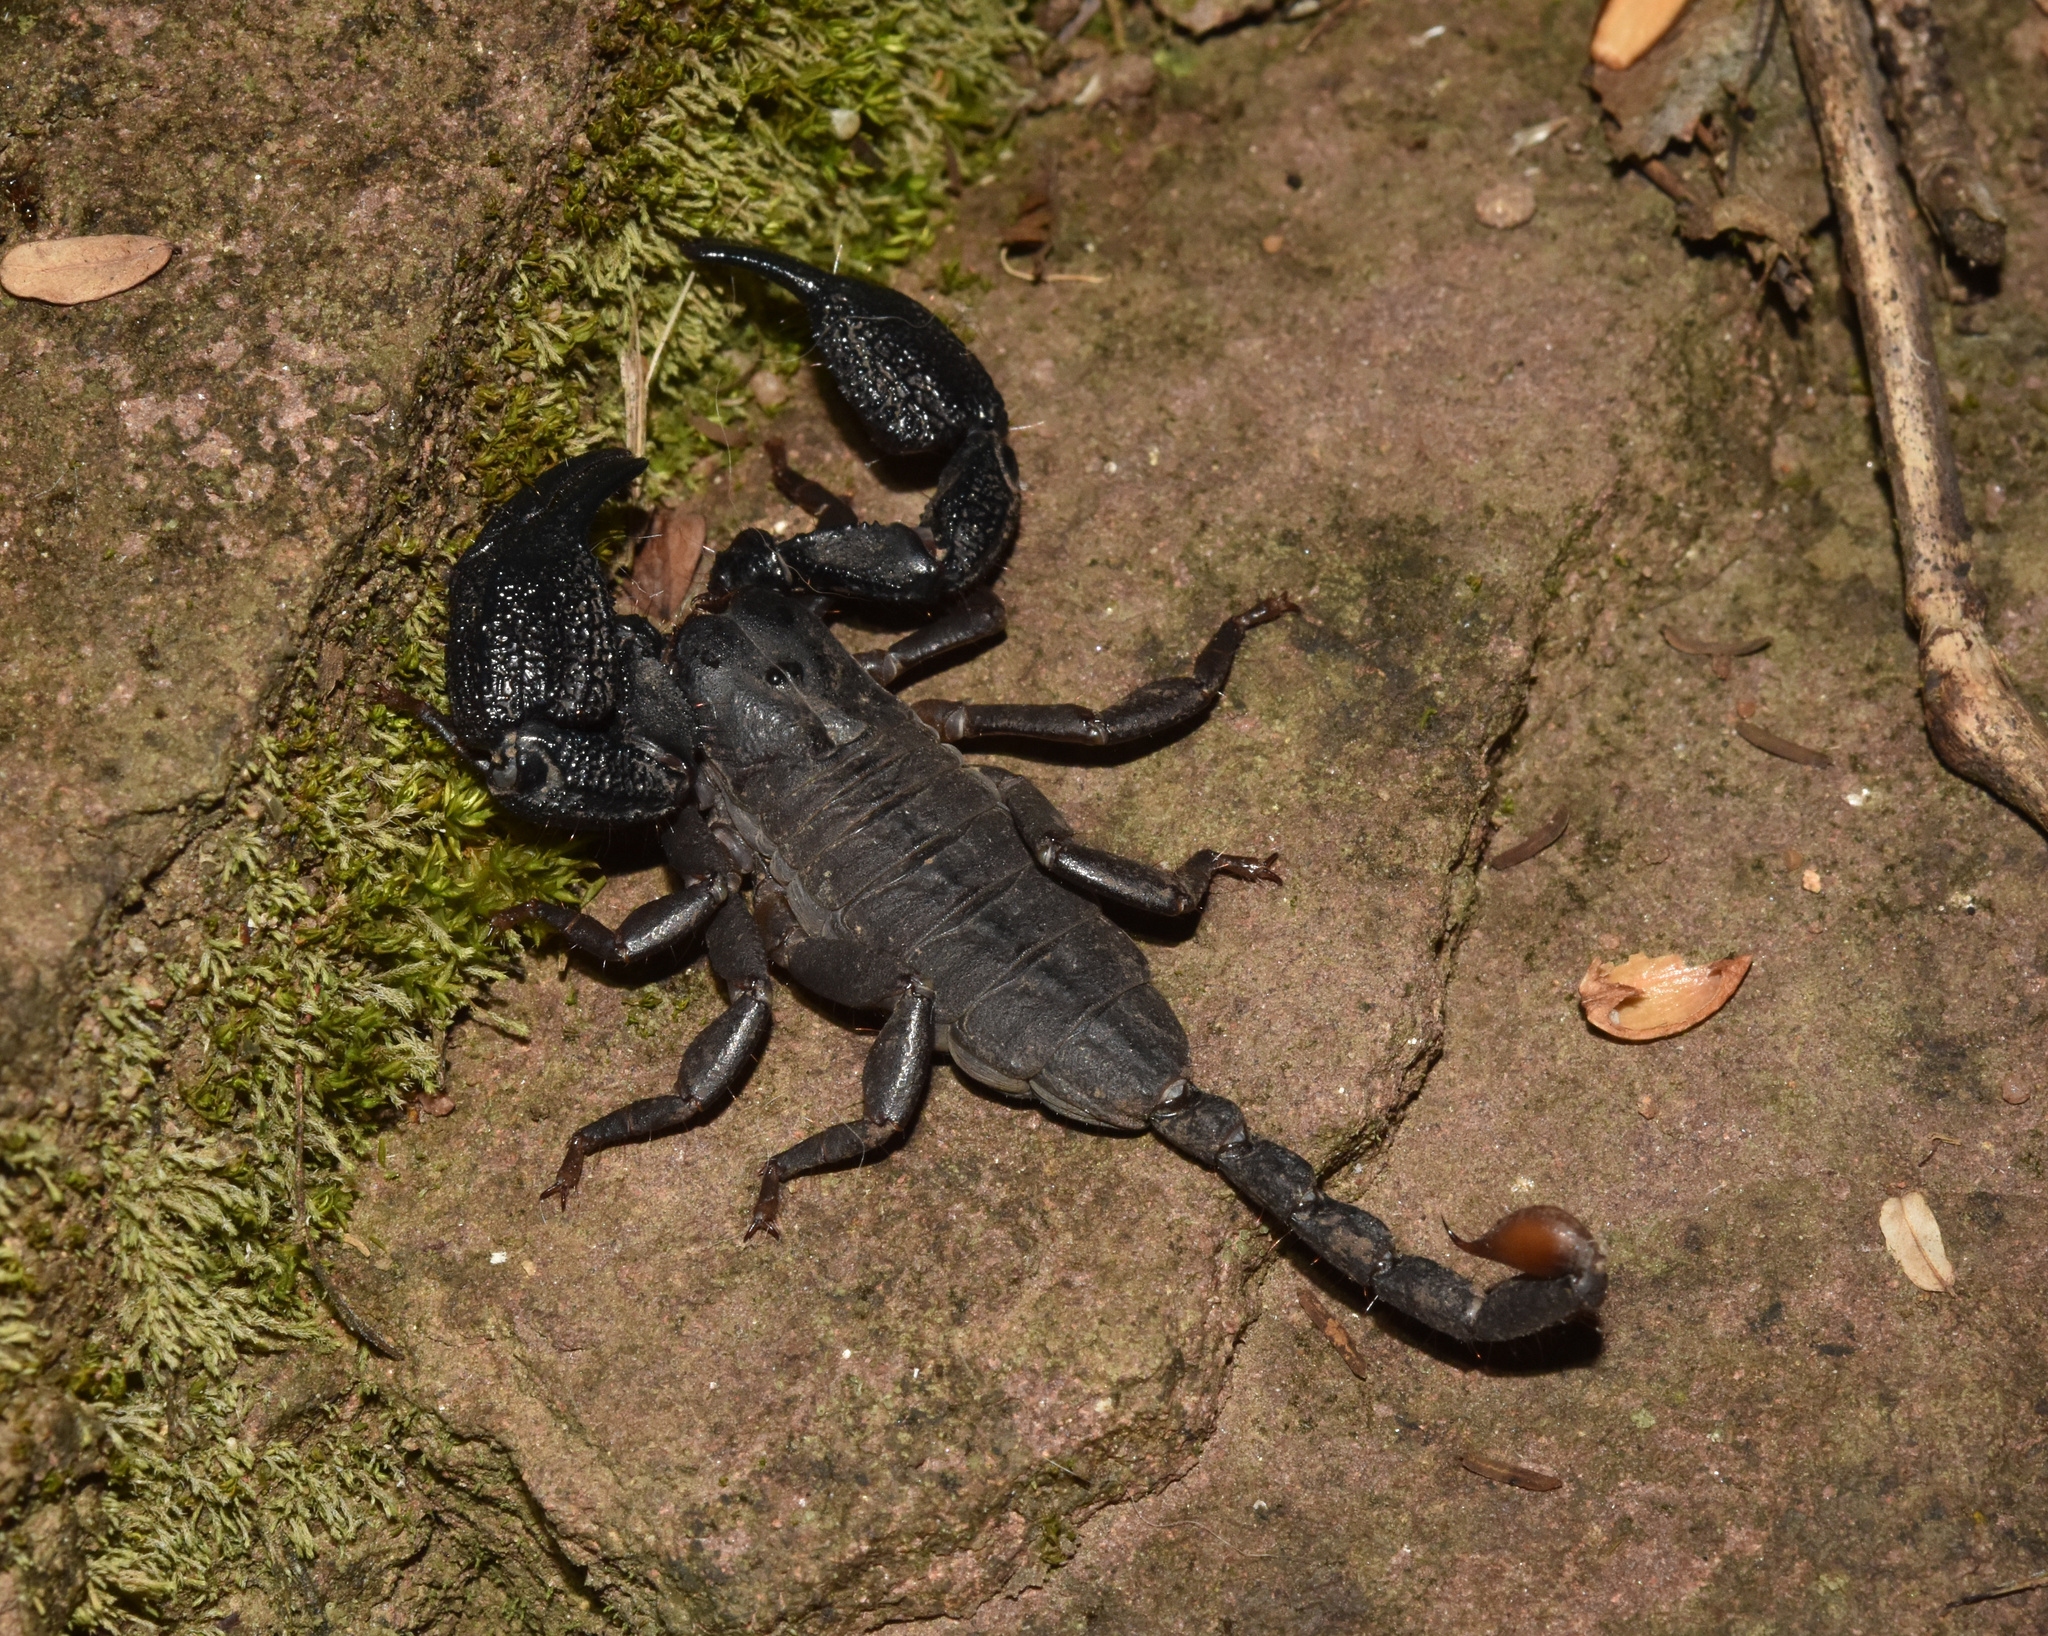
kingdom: Animalia
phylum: Arthropoda
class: Arachnida
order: Scorpiones
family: Hormuridae
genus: Opisthacanthus
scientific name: Opisthacanthus validus
